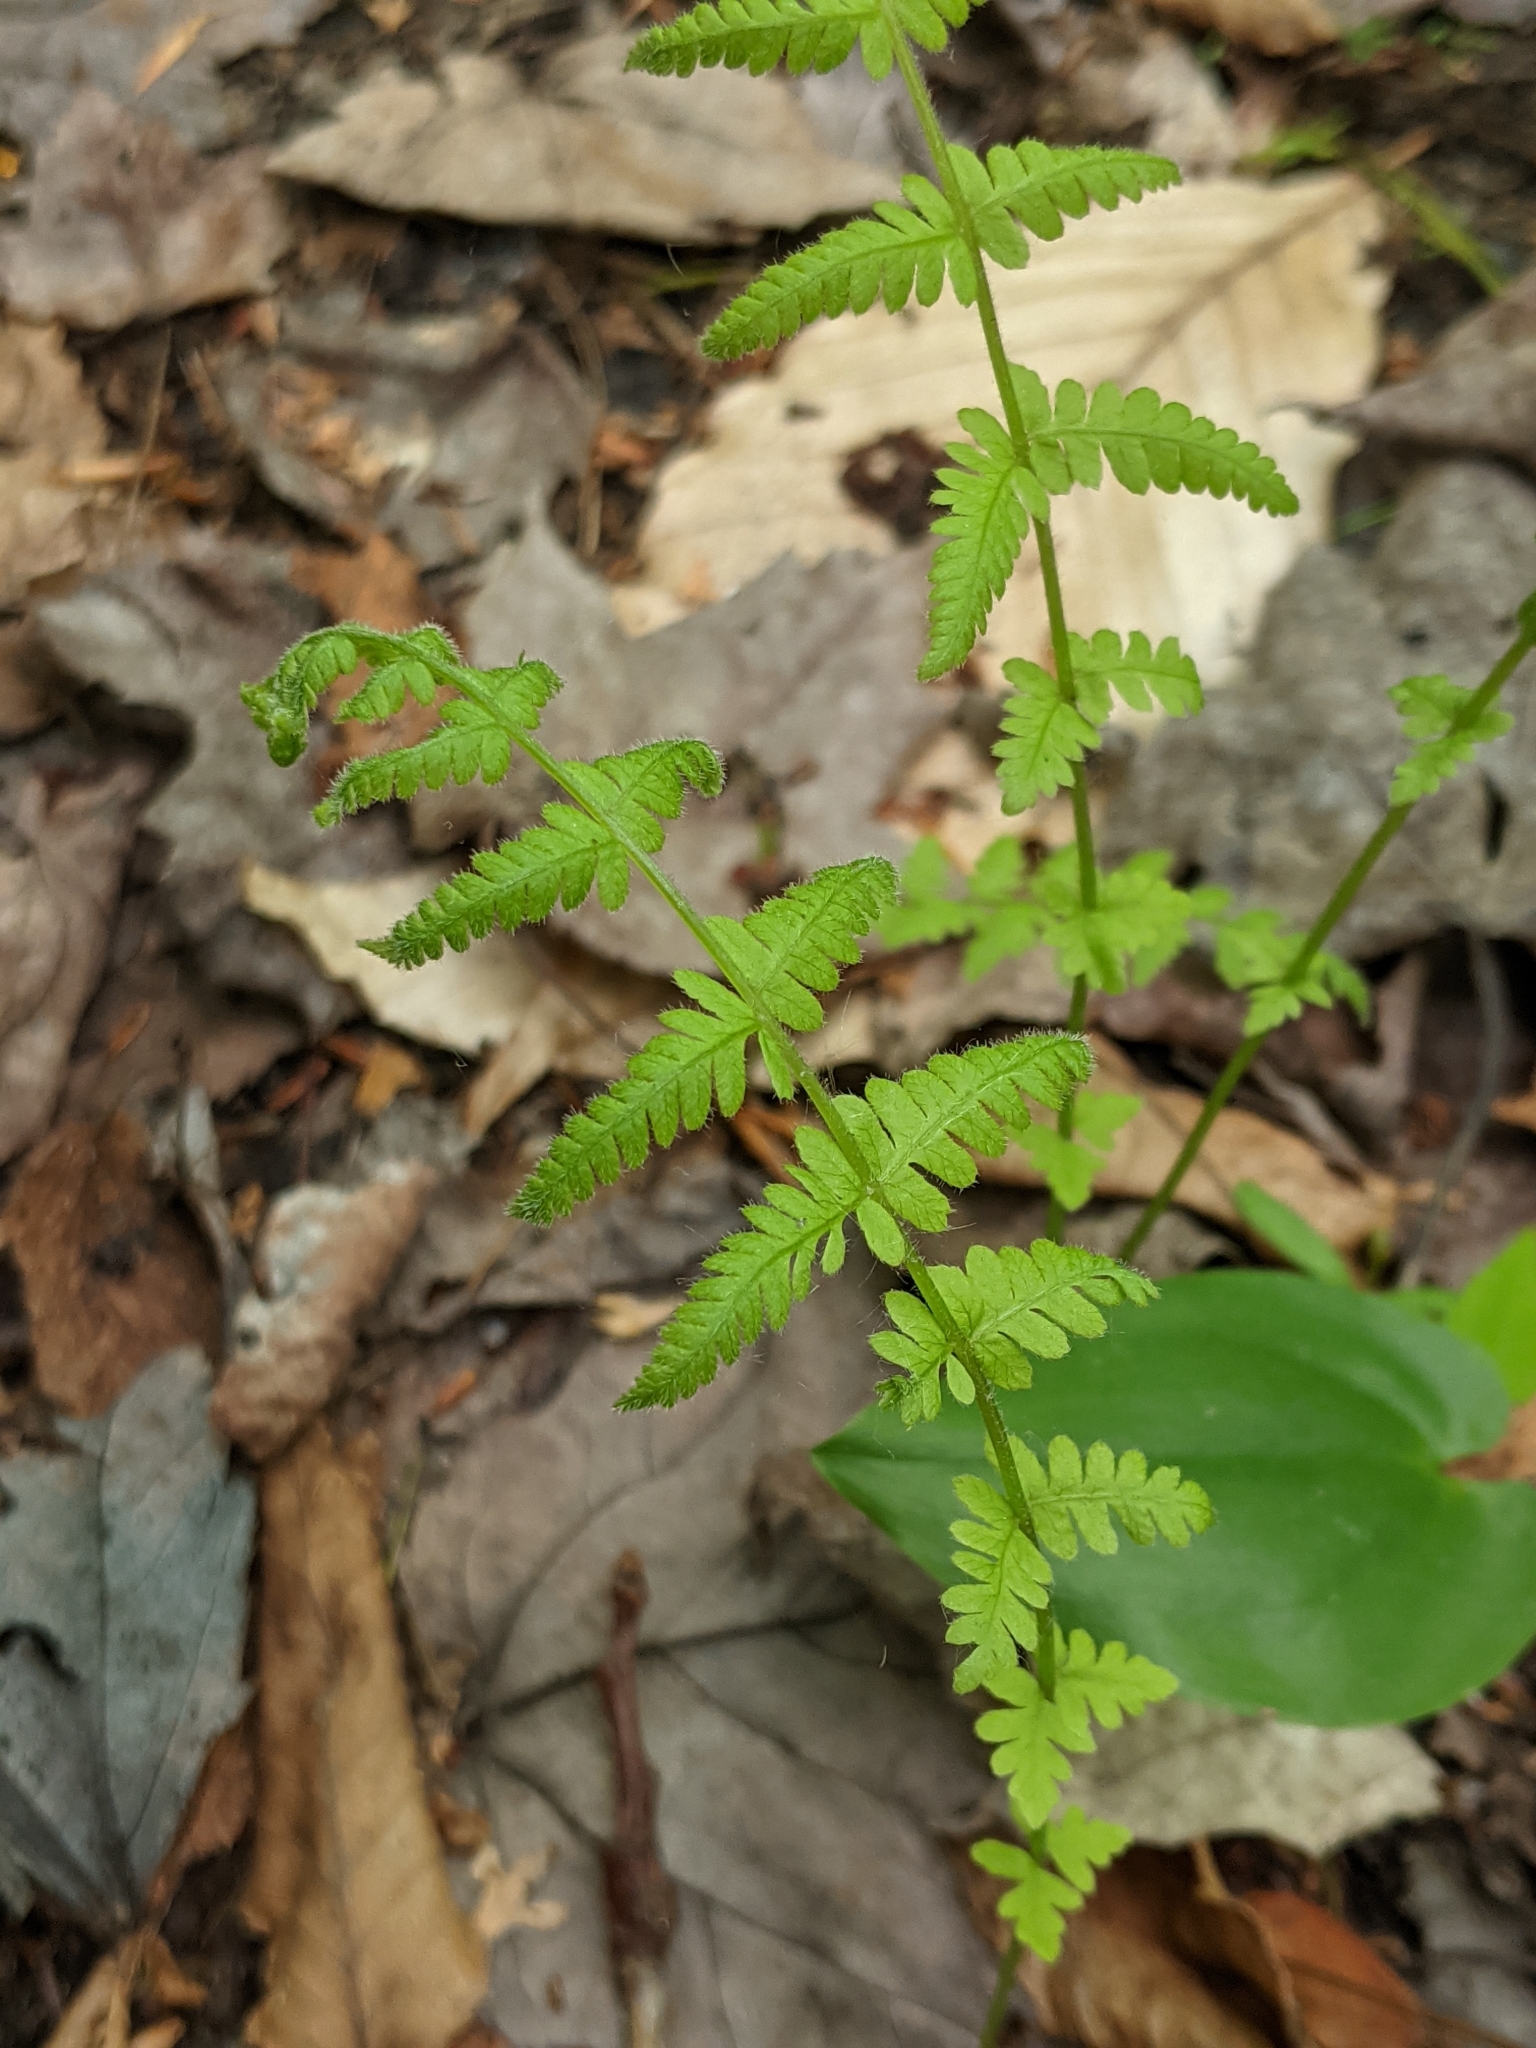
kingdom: Plantae
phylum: Tracheophyta
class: Polypodiopsida
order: Polypodiales
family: Thelypteridaceae
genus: Amauropelta
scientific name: Amauropelta noveboracensis
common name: New york fern
